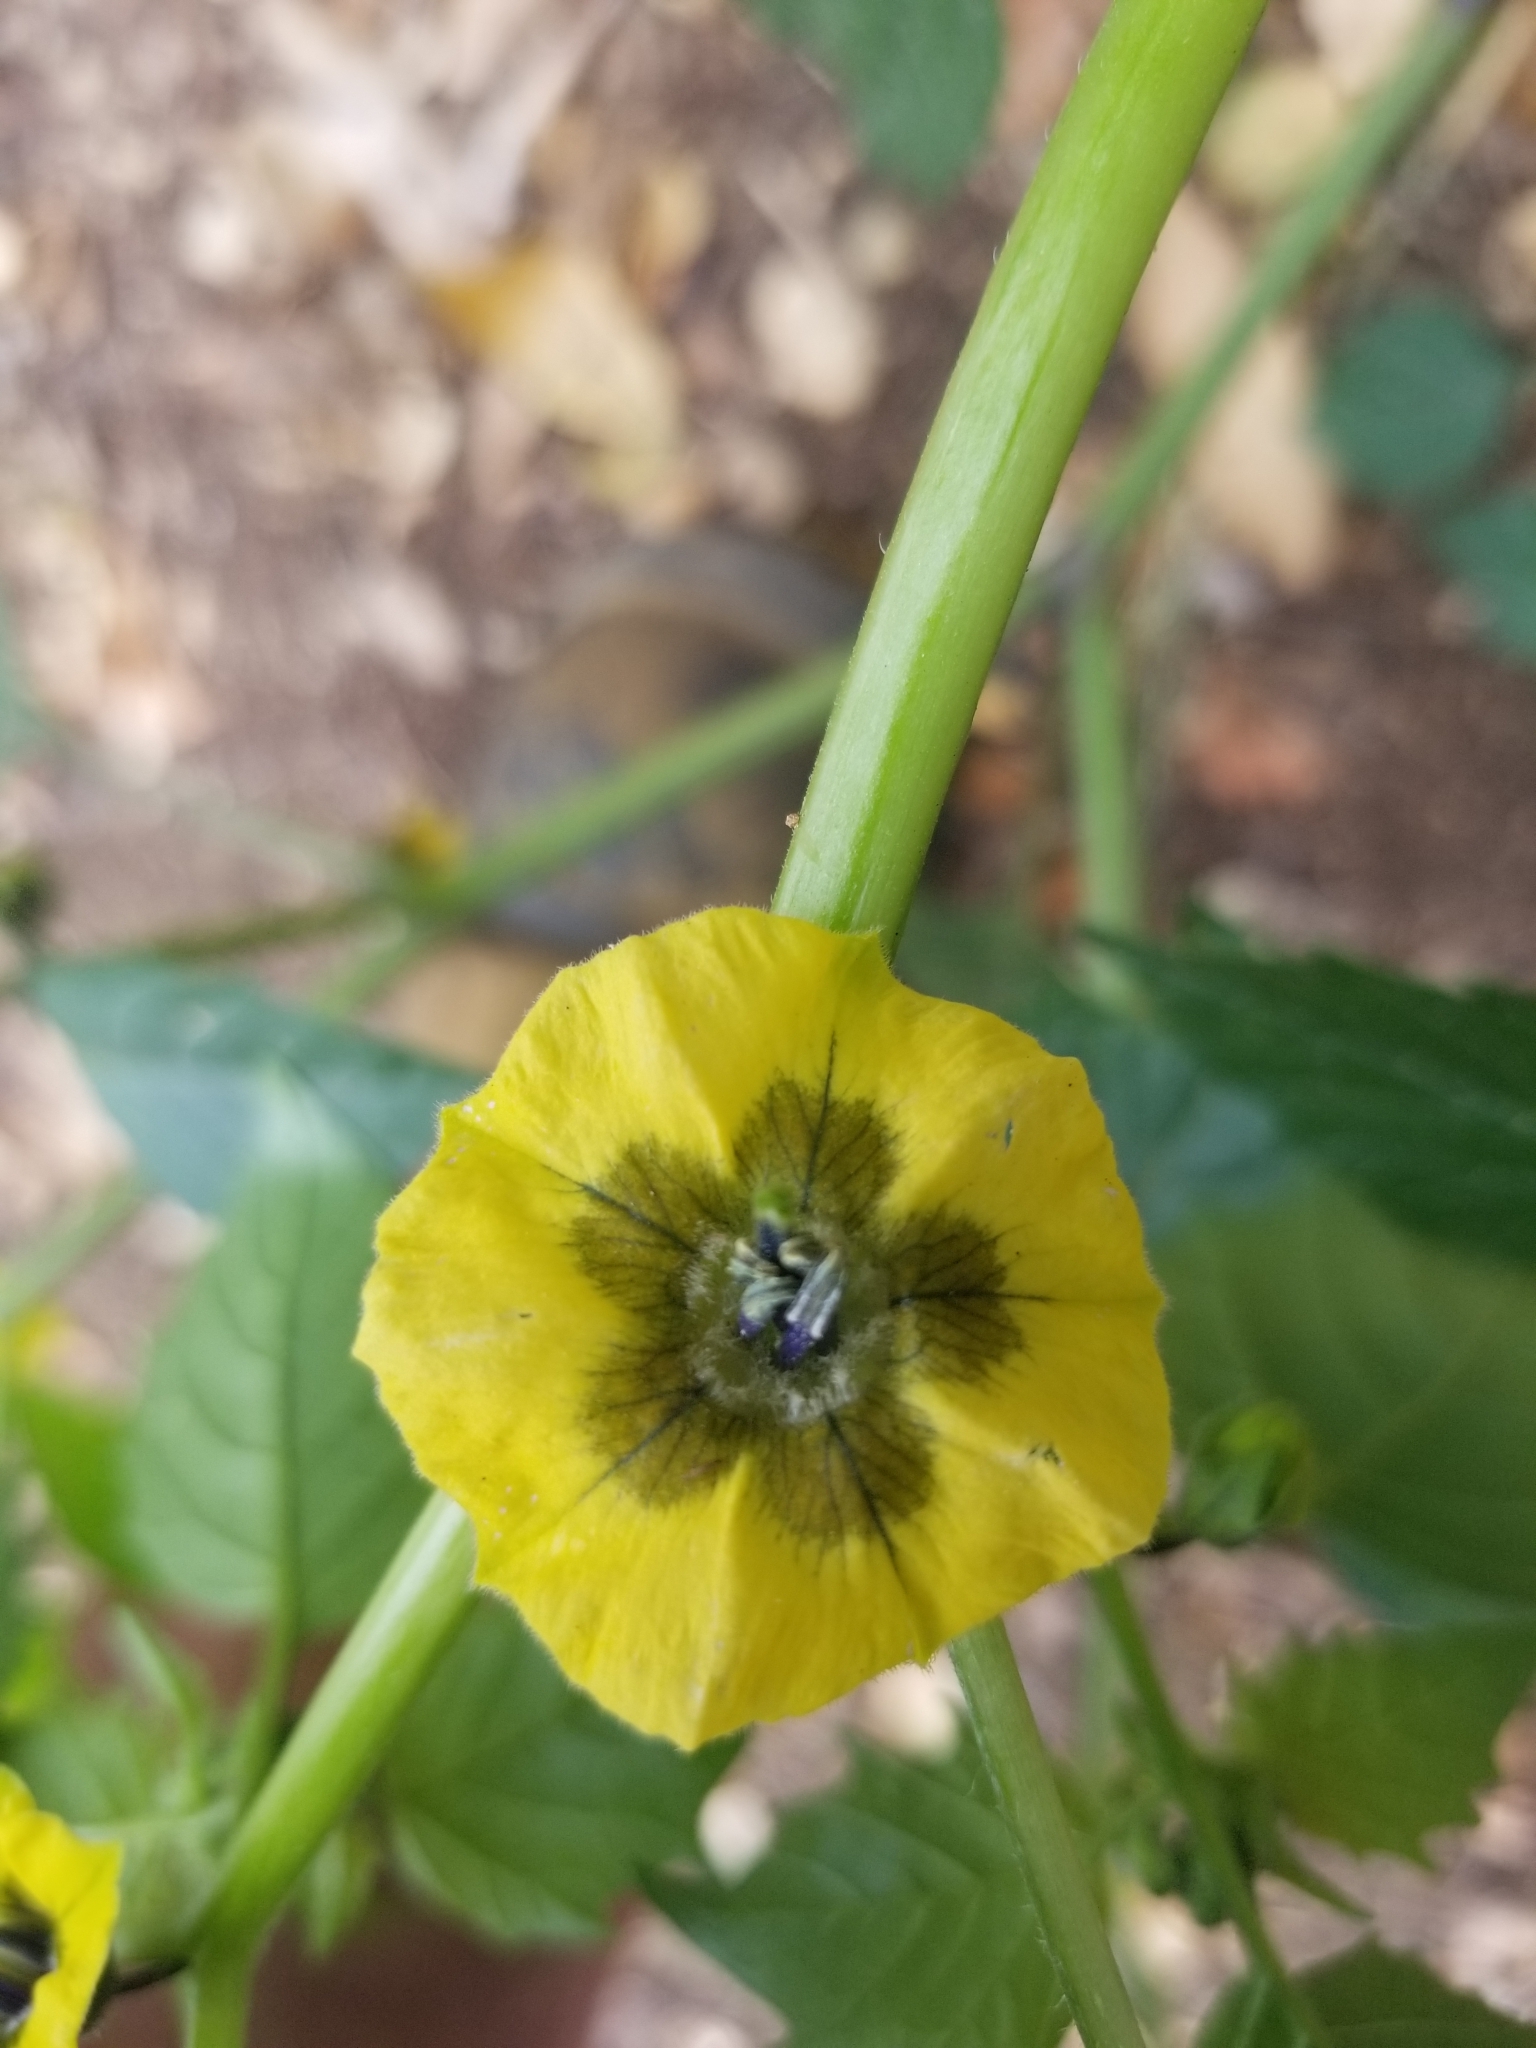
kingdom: Plantae
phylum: Tracheophyta
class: Magnoliopsida
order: Solanales
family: Solanaceae
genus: Physalis
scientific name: Physalis philadelphica
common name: Husk-tomato
